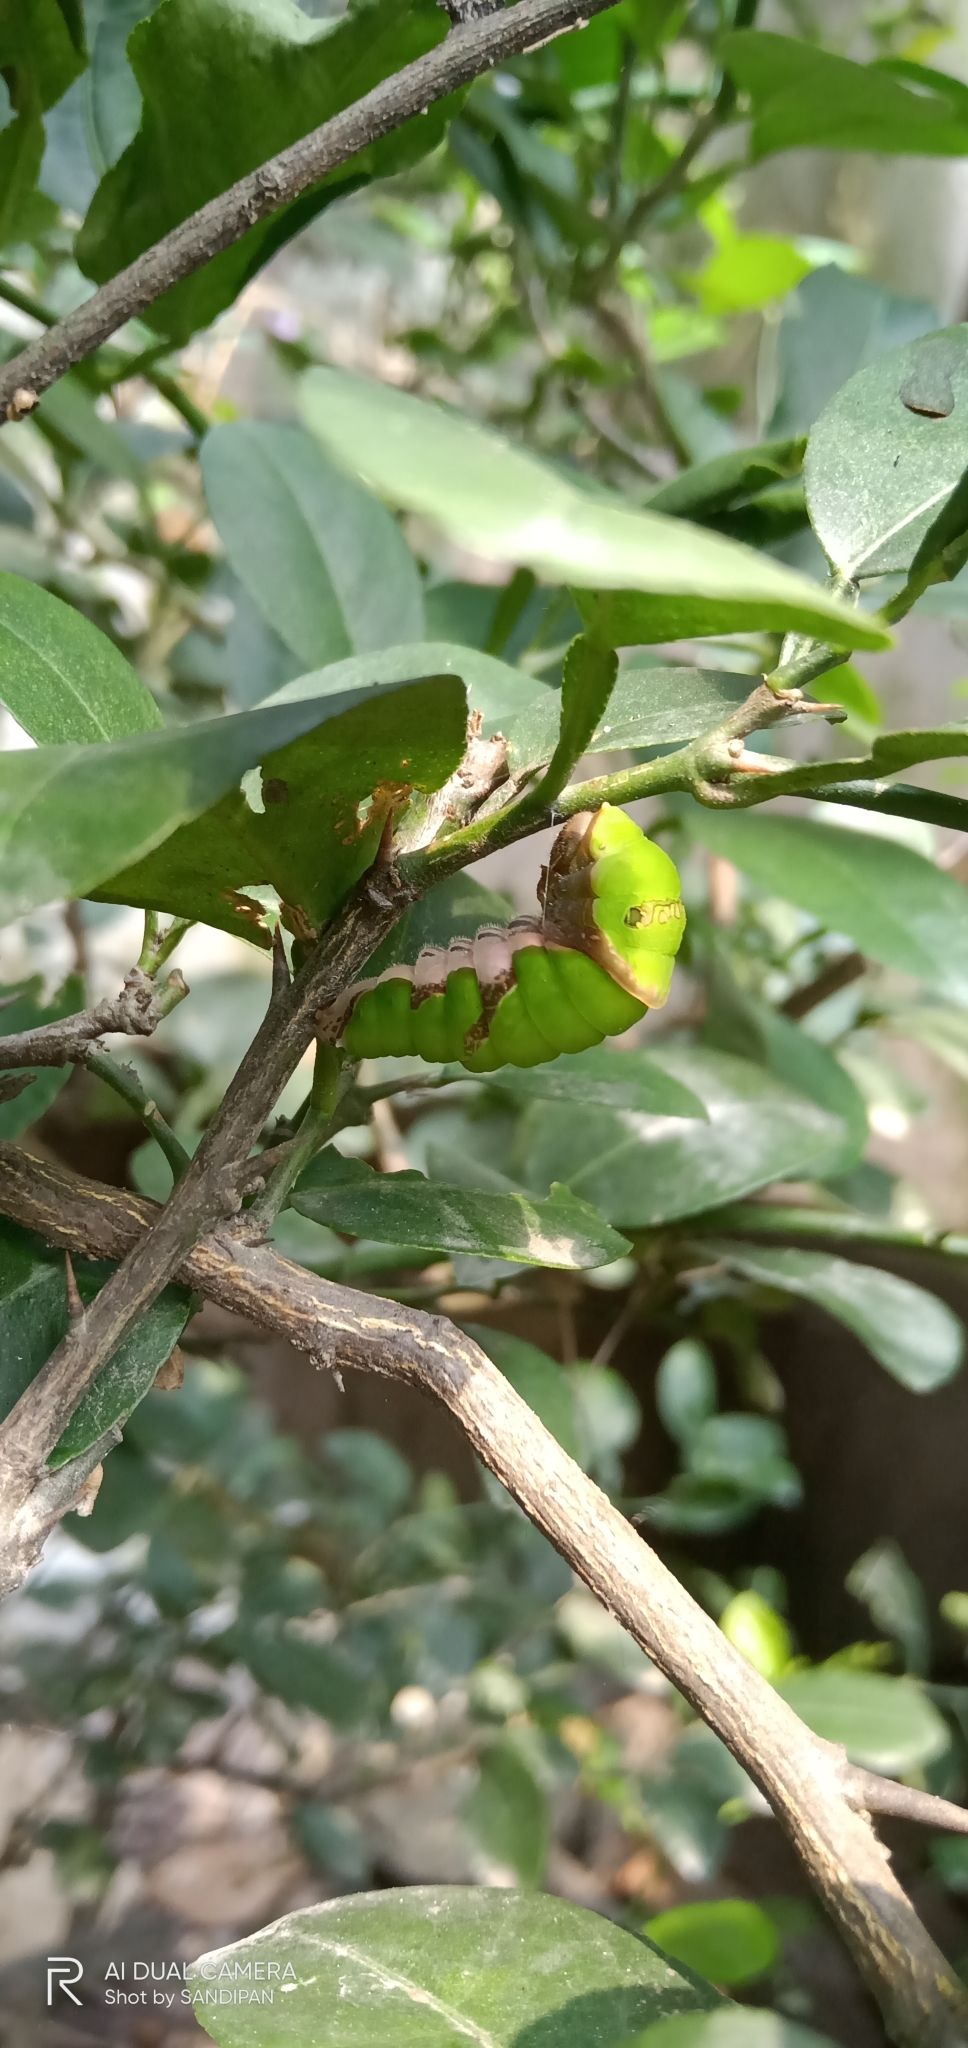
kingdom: Animalia
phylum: Arthropoda
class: Insecta
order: Lepidoptera
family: Papilionidae
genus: Papilio
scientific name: Papilio polytes
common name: Common mormon
